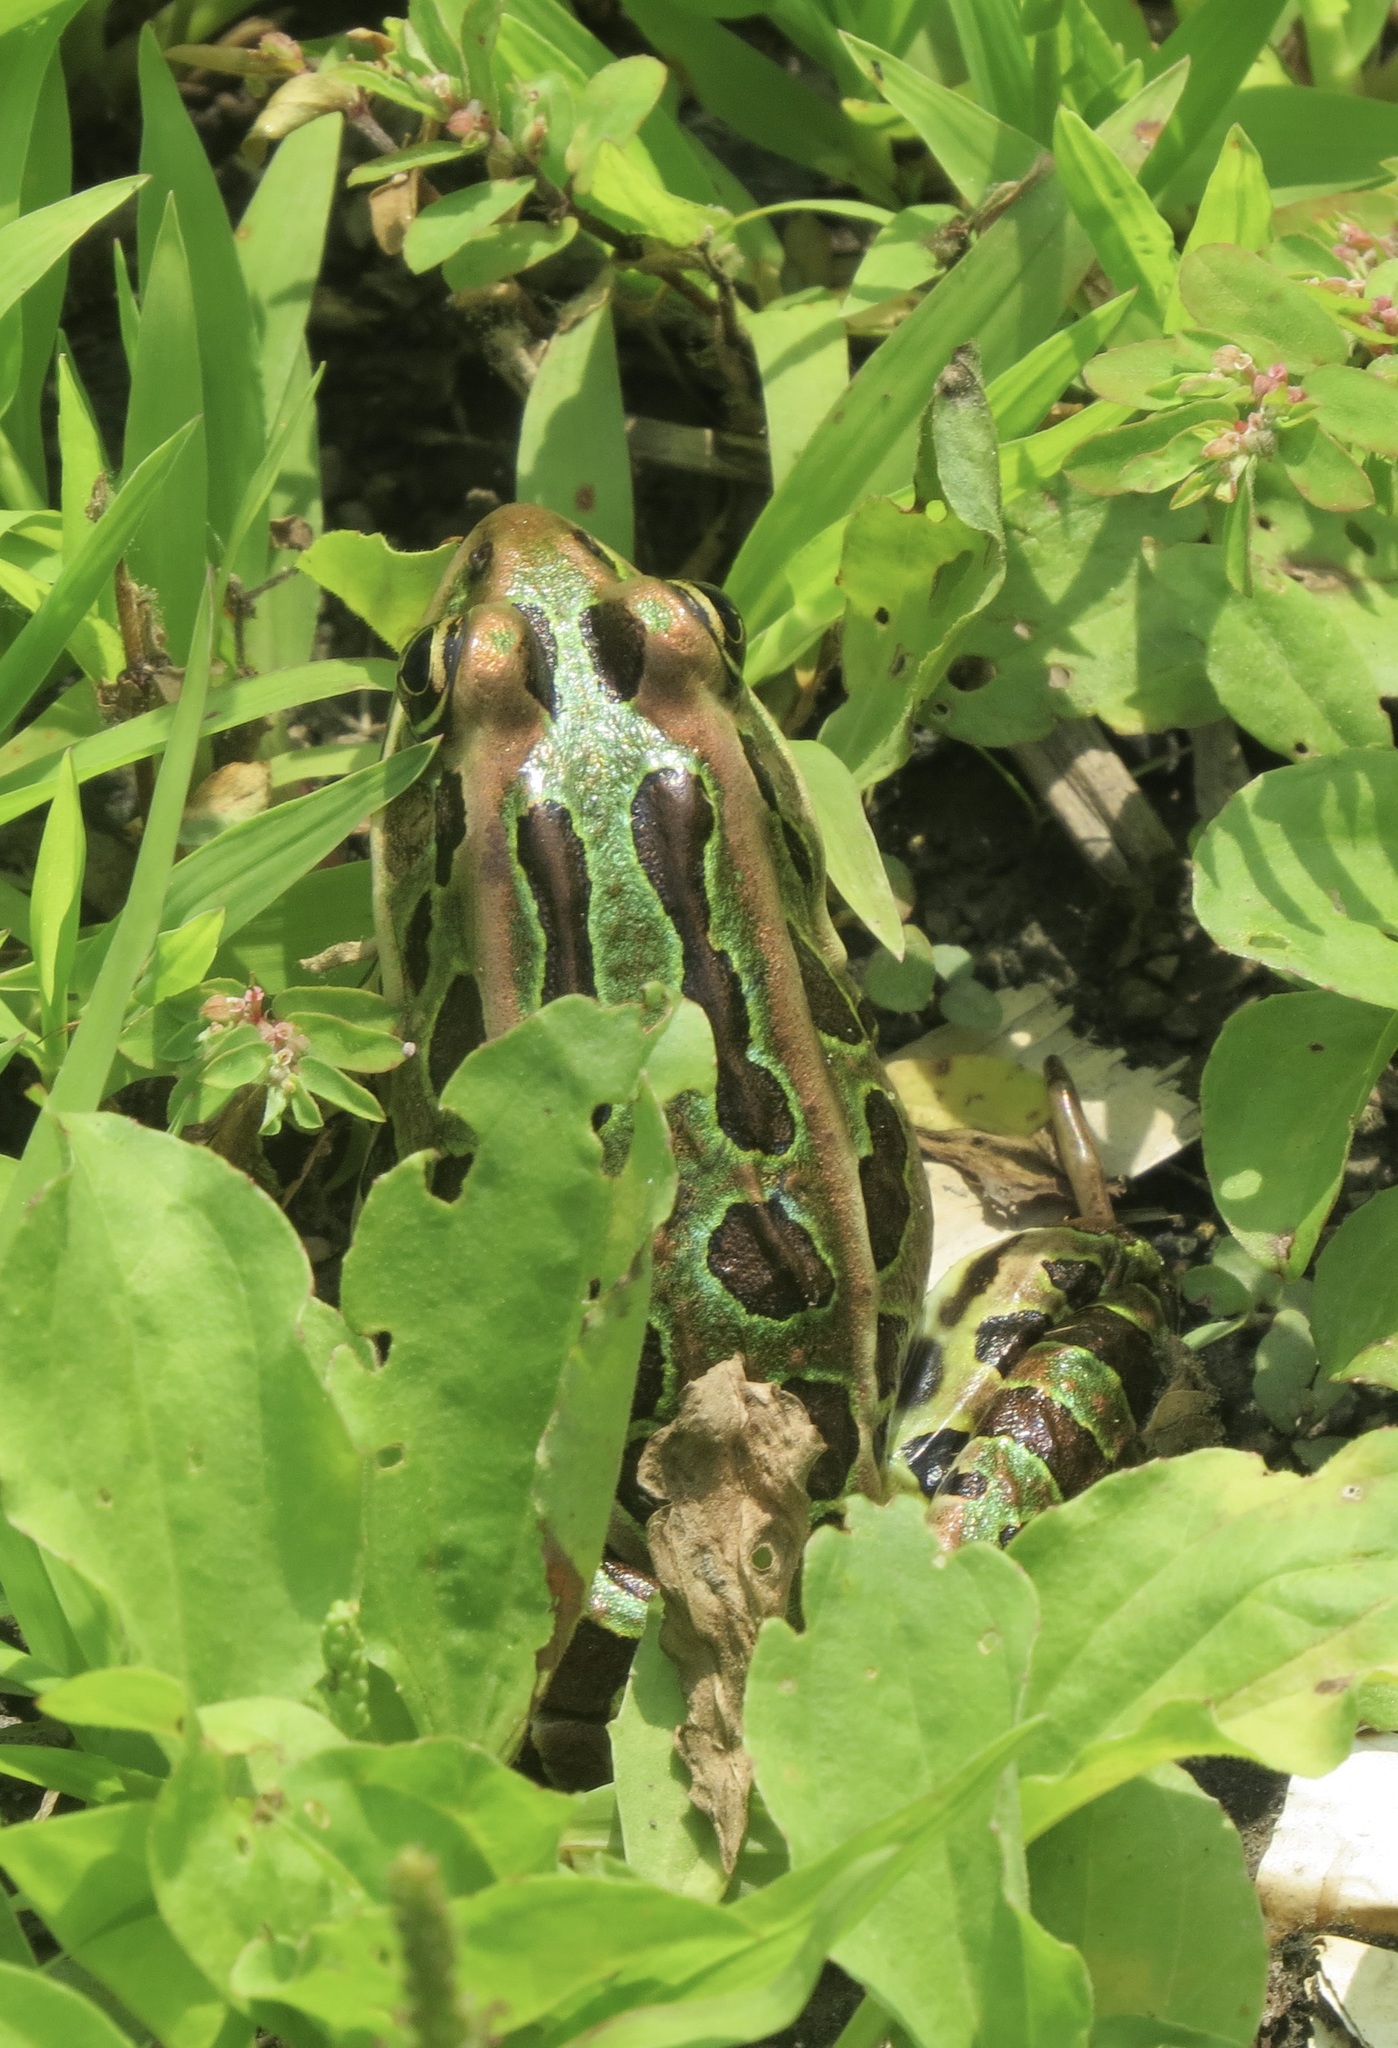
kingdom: Animalia
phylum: Chordata
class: Amphibia
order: Anura
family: Ranidae
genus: Lithobates
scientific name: Lithobates pipiens
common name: Northern leopard frog
